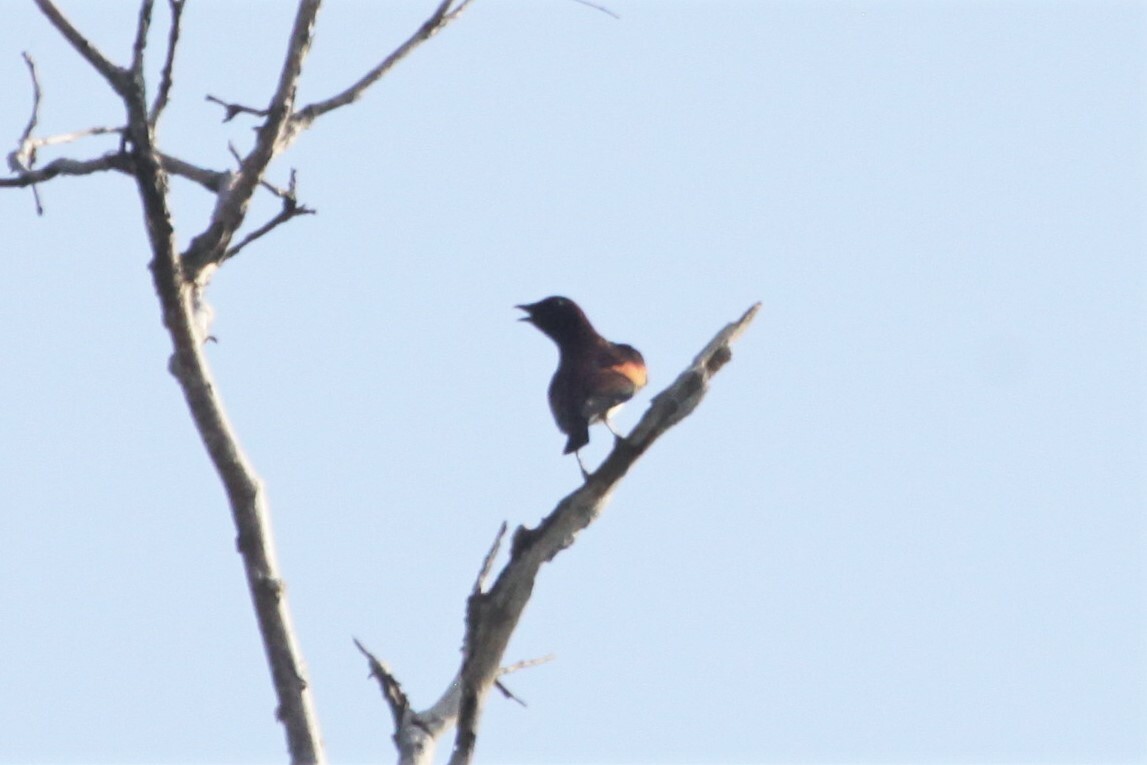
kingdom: Animalia
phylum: Chordata
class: Aves
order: Passeriformes
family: Sturnidae
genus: Cinnyricinclus
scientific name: Cinnyricinclus leucogaster
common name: Violet-backed starling
